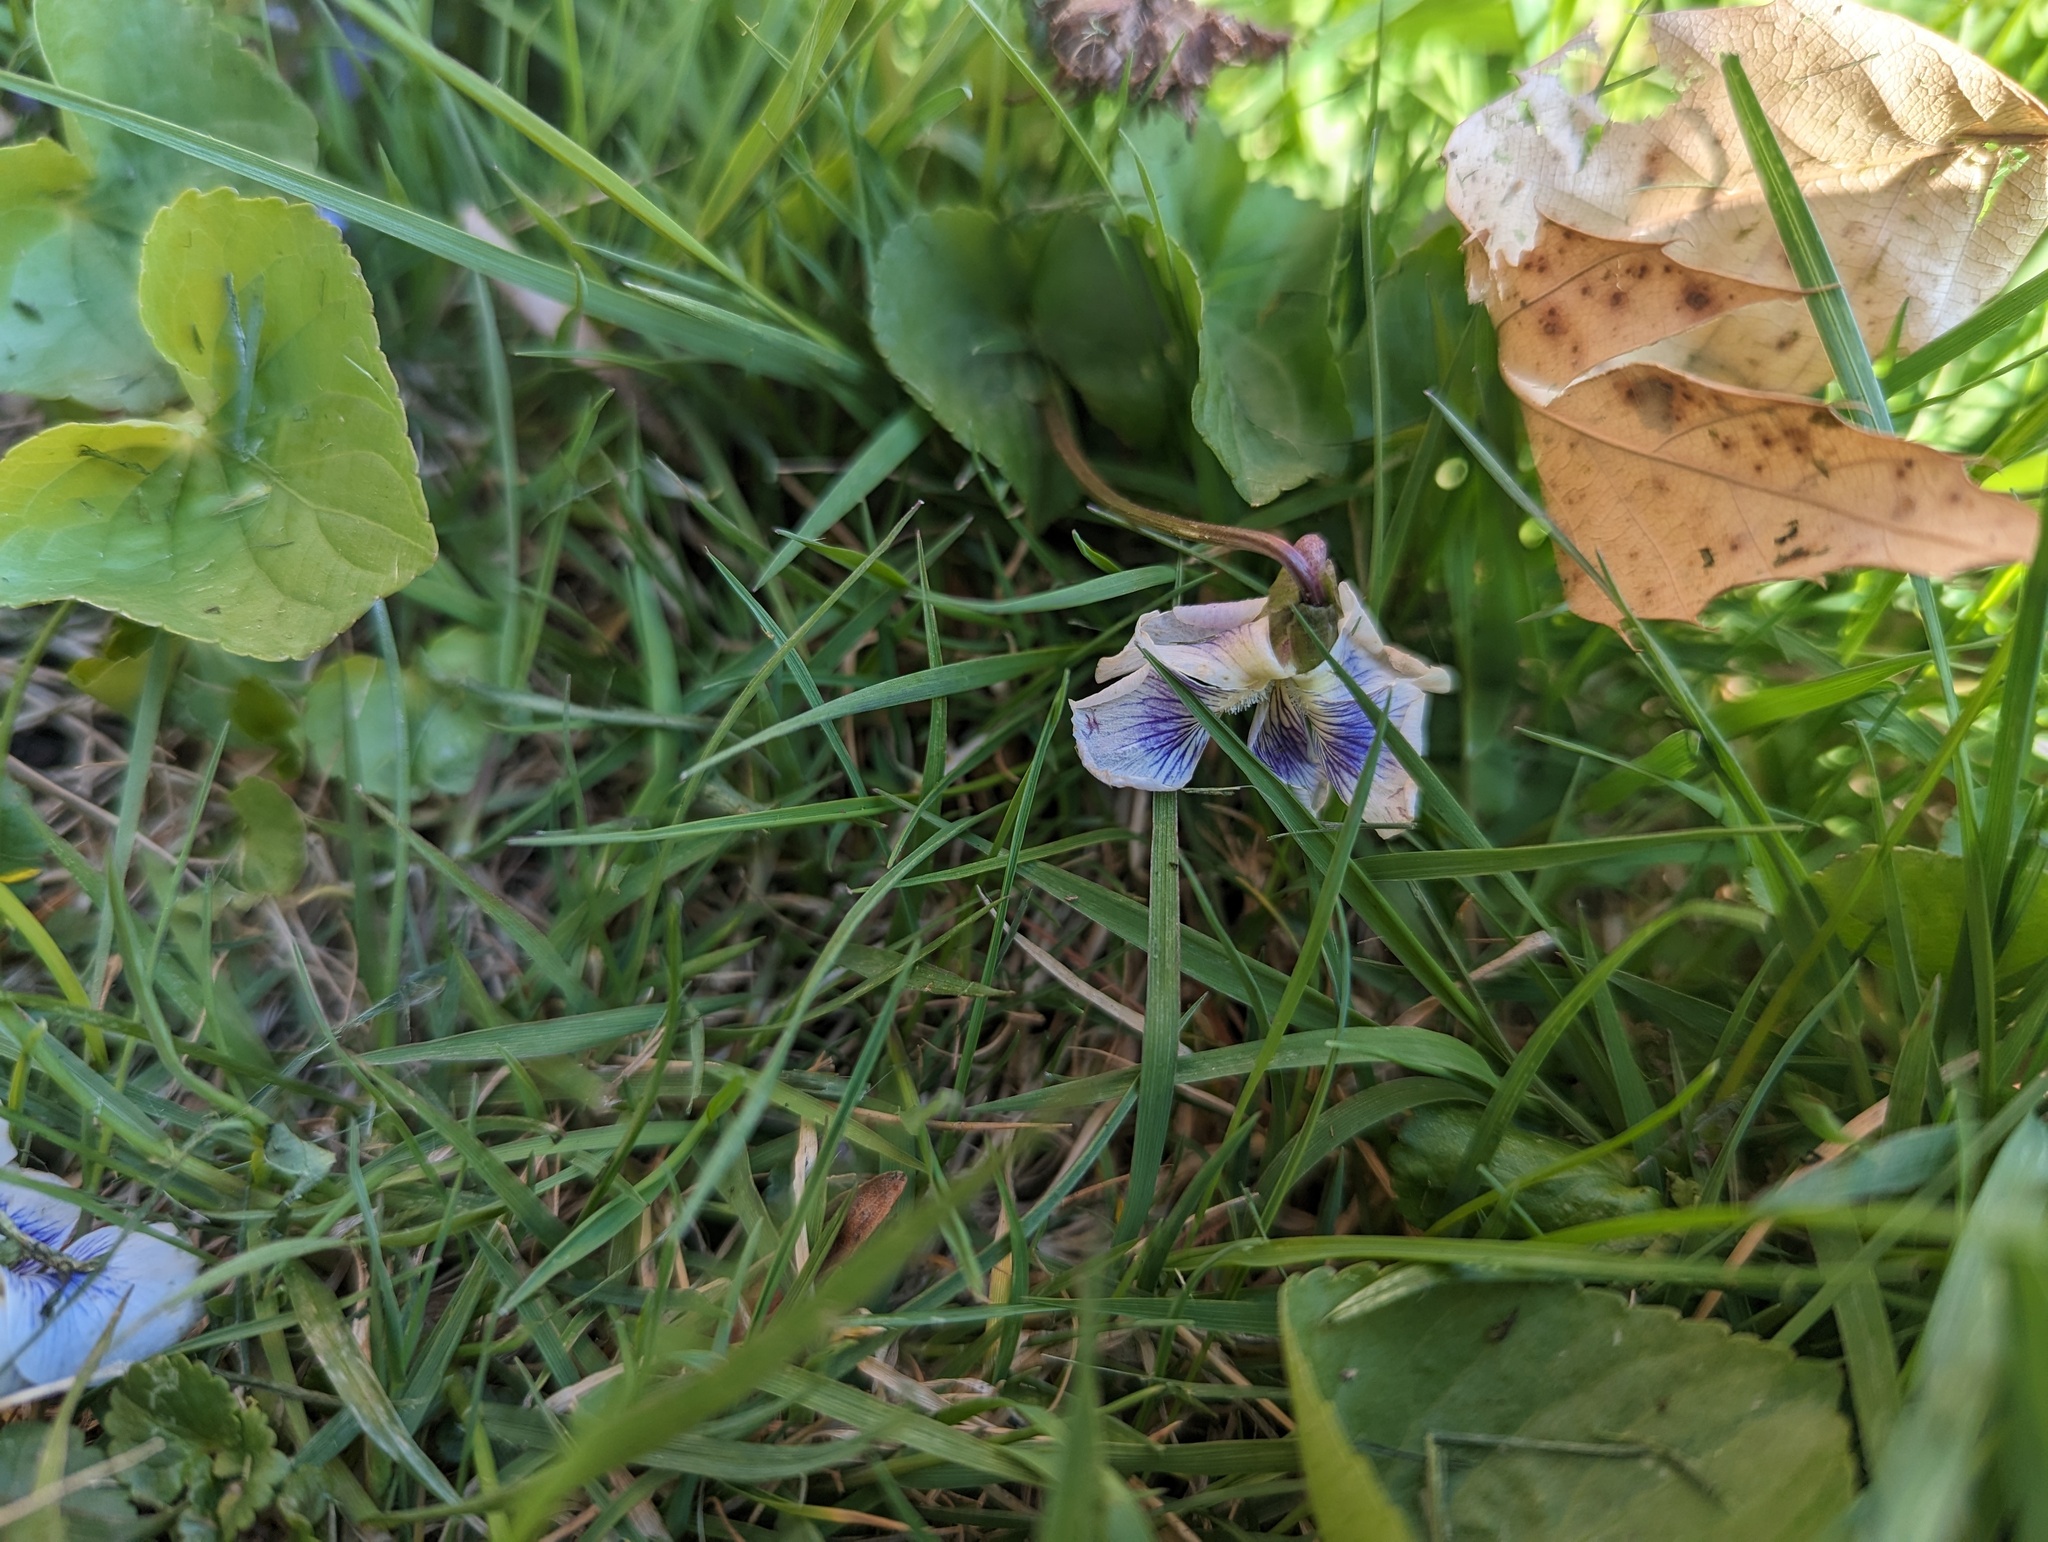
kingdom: Plantae
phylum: Tracheophyta
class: Magnoliopsida
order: Malpighiales
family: Violaceae
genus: Viola
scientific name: Viola sororia
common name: Dooryard violet
